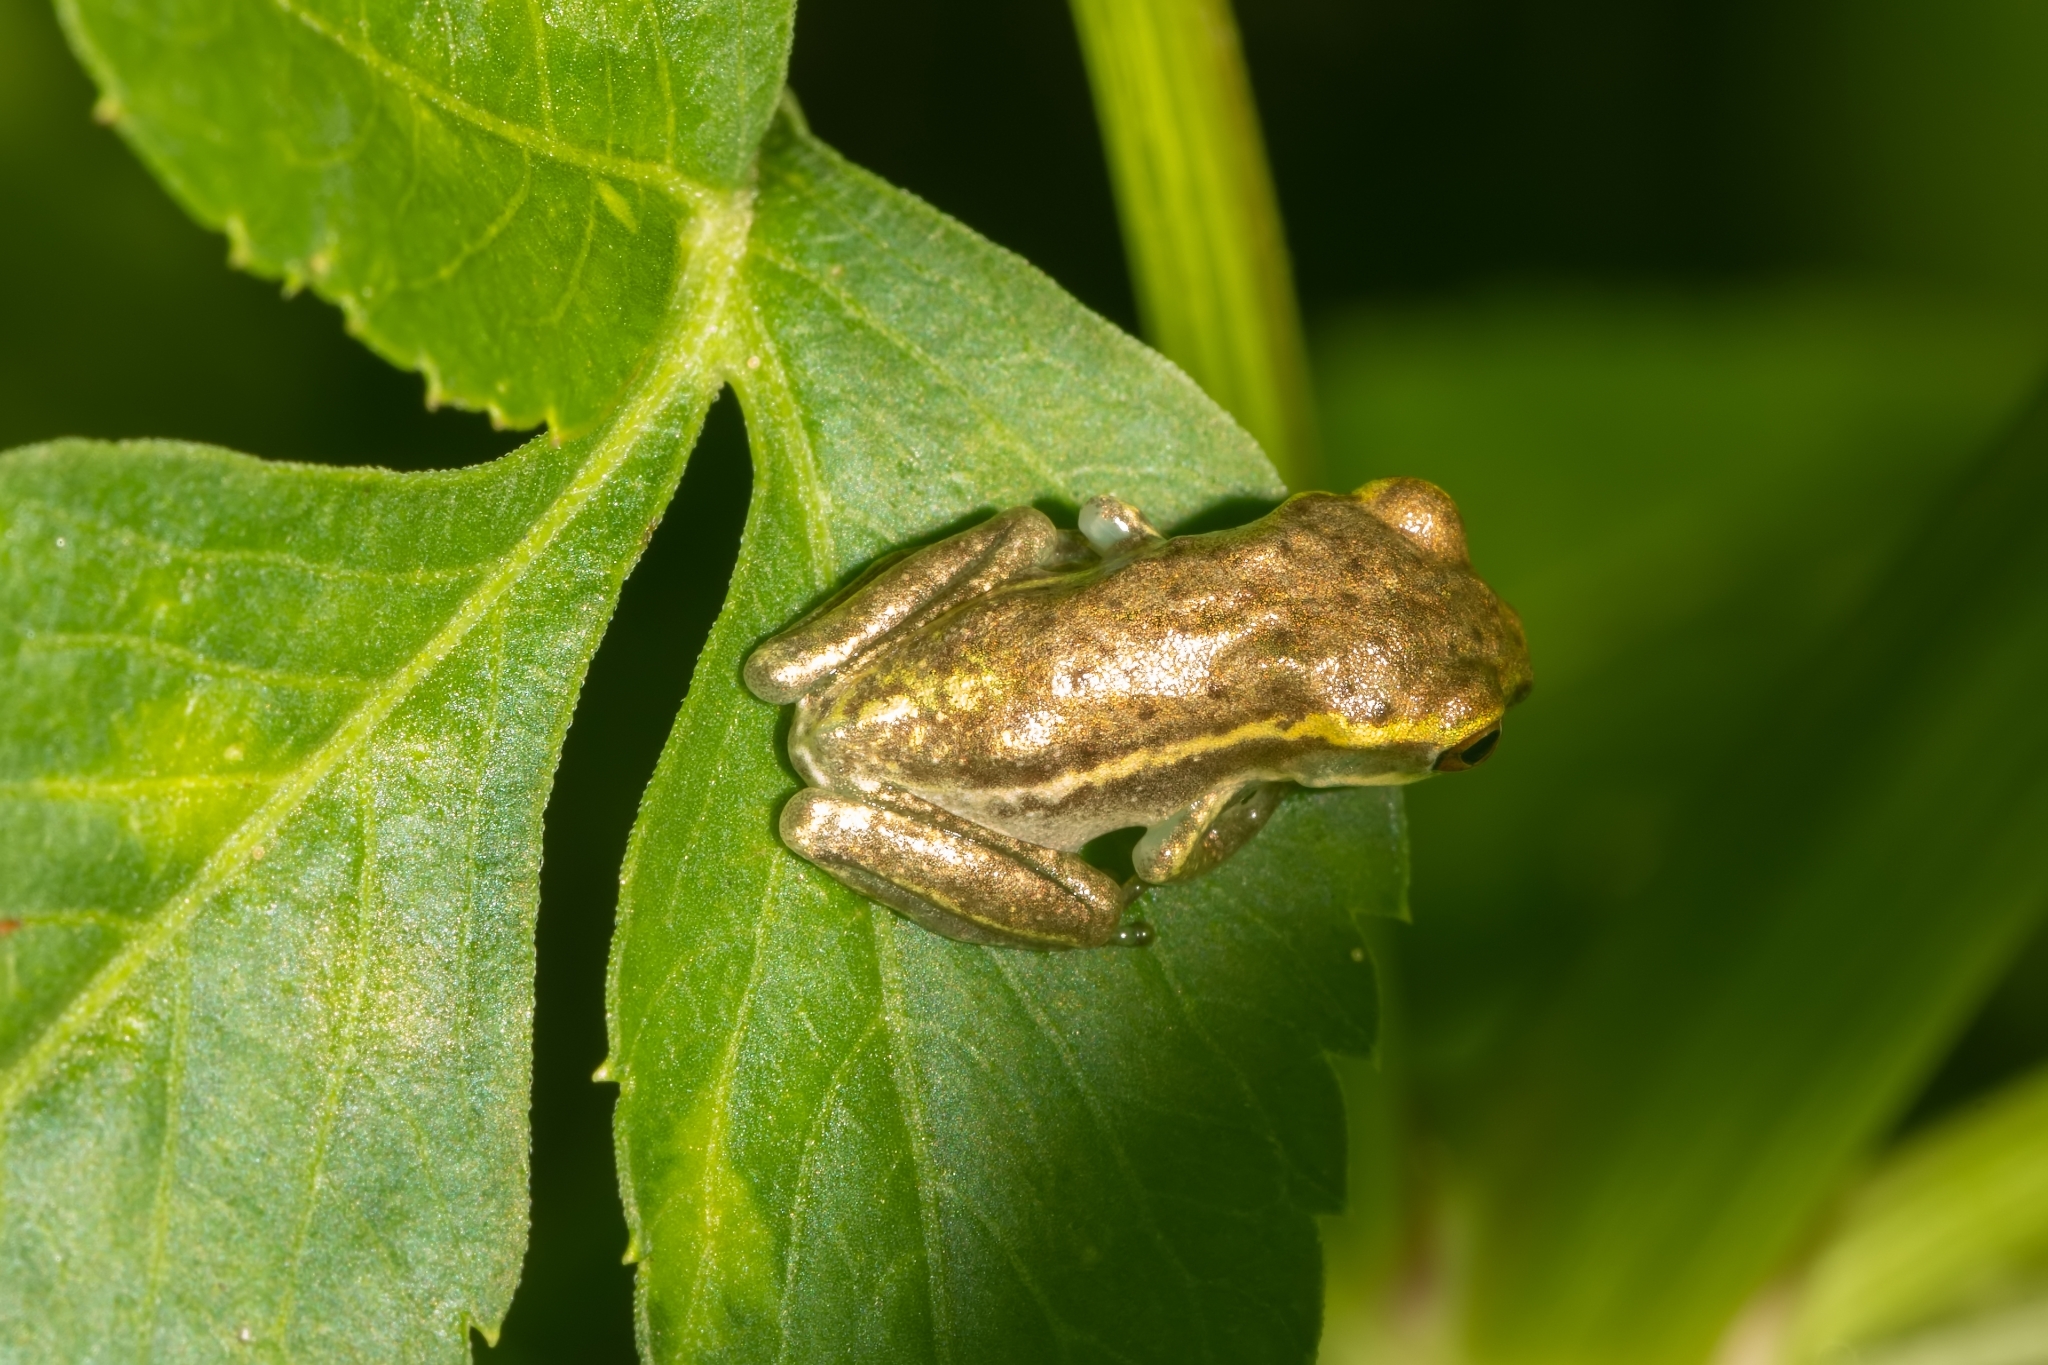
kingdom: Animalia
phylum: Chordata
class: Amphibia
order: Anura
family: Hylidae
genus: Osteopilus
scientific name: Osteopilus septentrionalis
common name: Cuban treefrog
